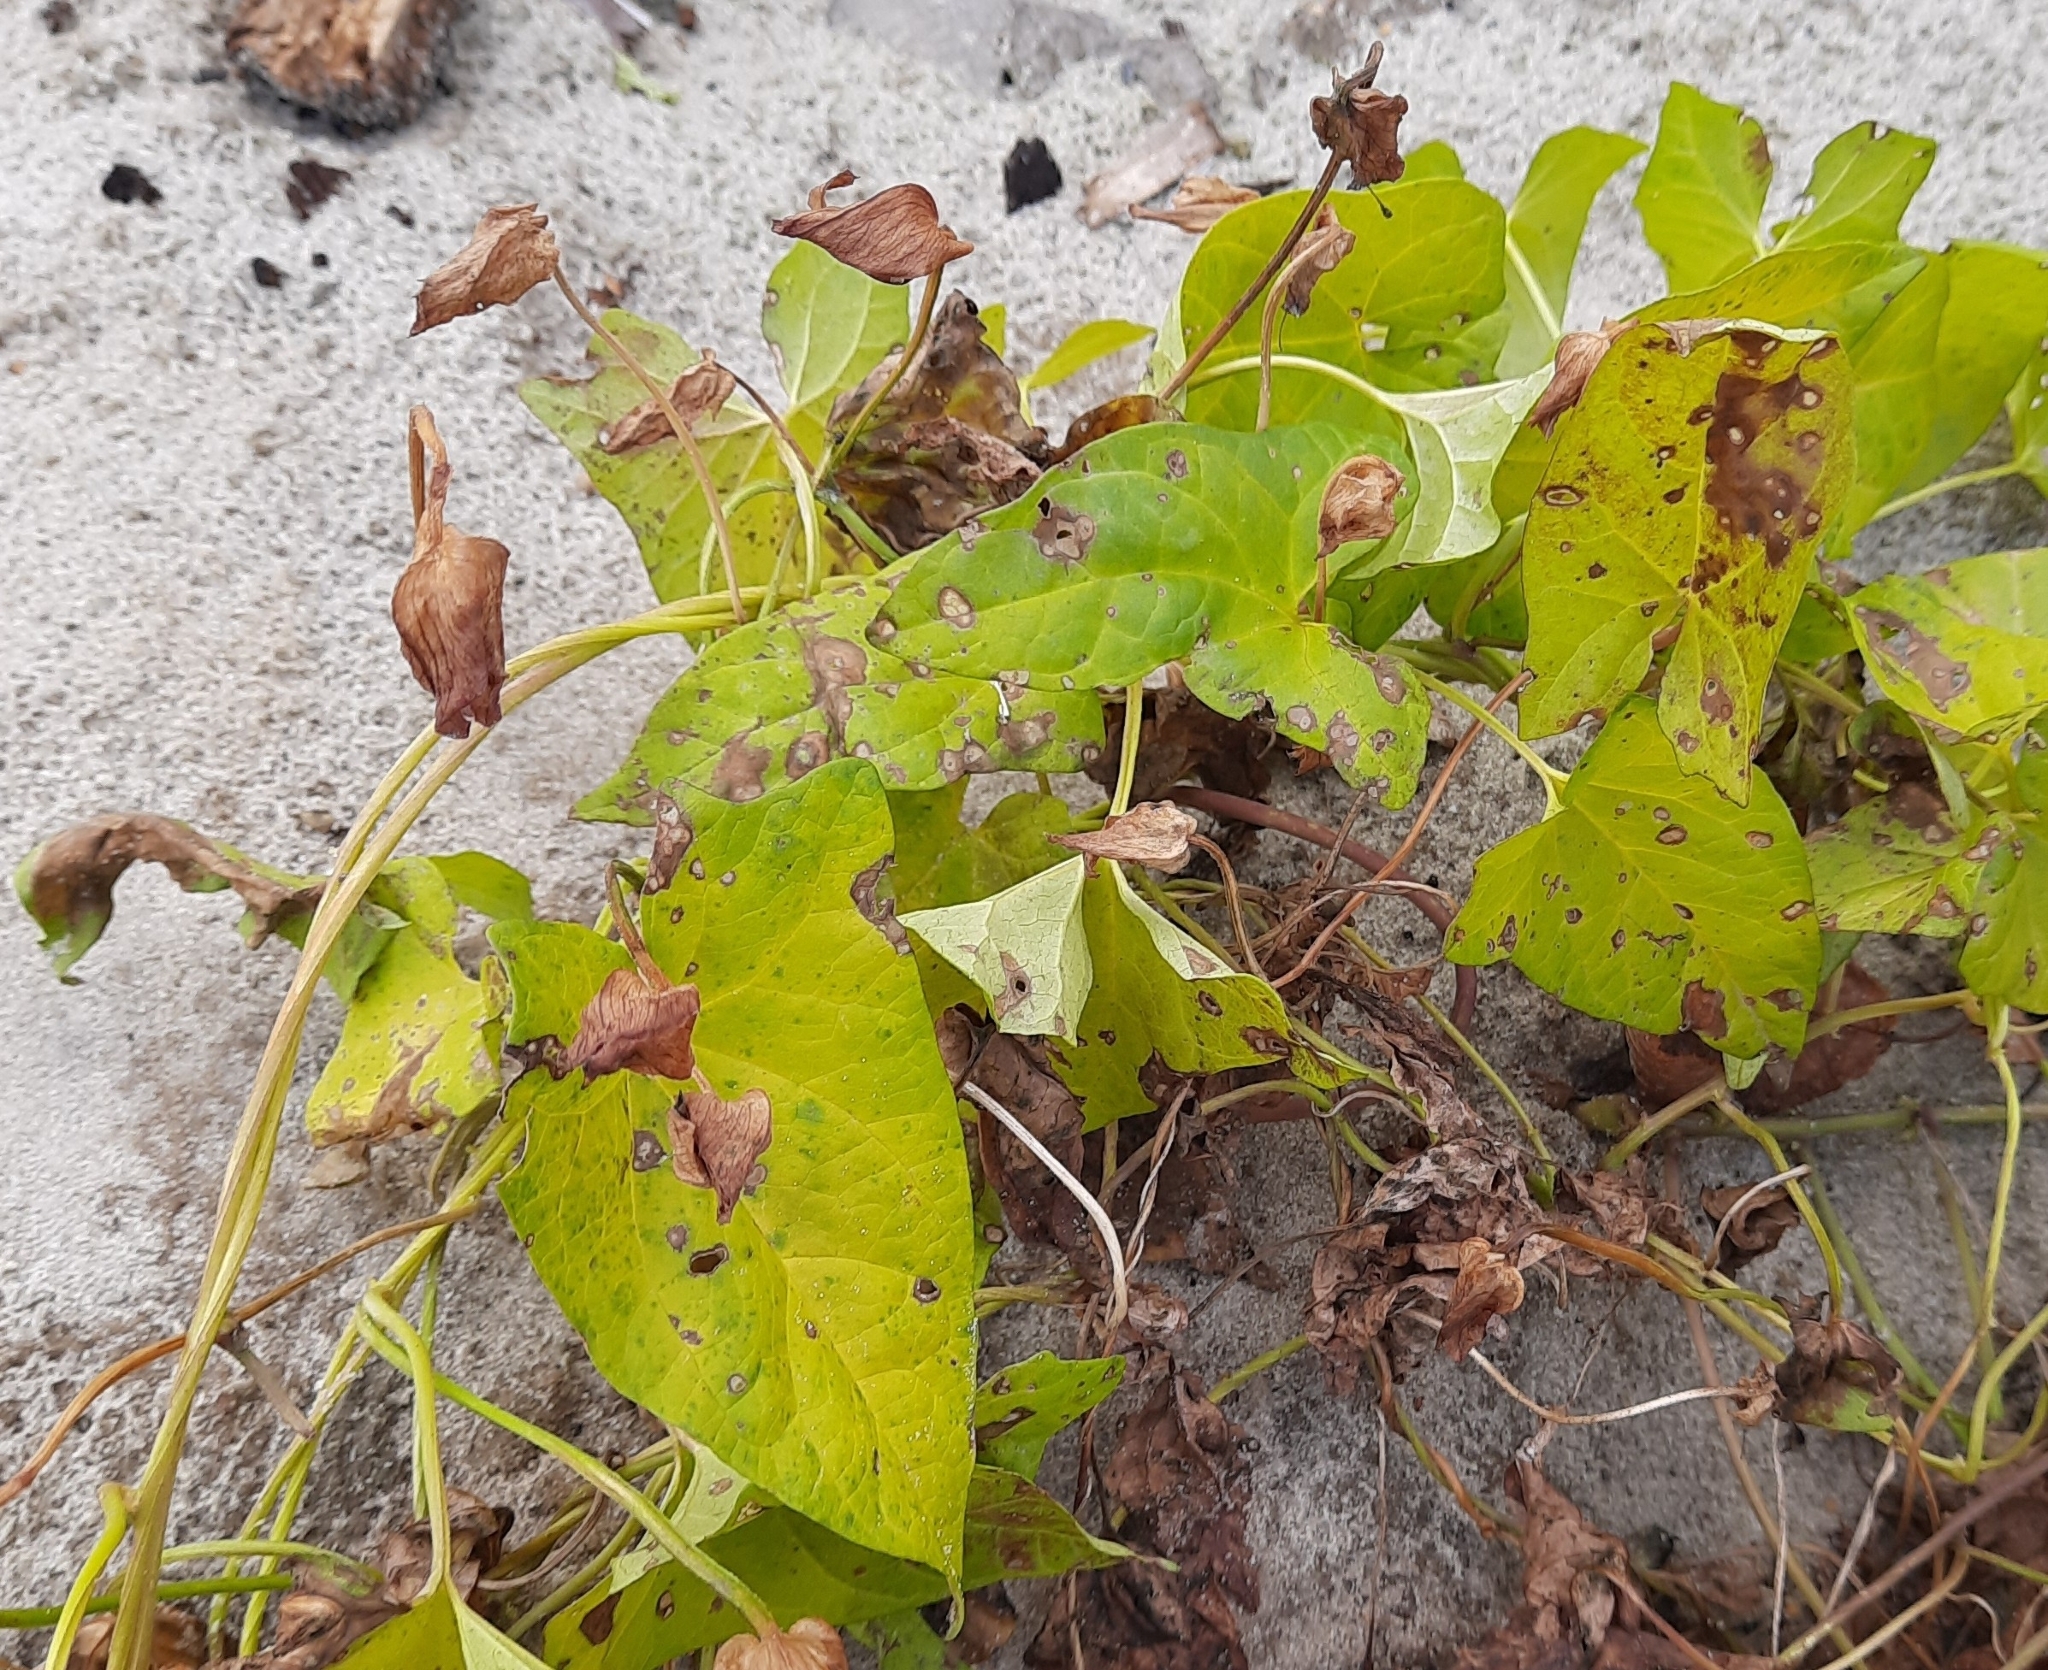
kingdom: Plantae
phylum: Tracheophyta
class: Magnoliopsida
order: Solanales
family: Convolvulaceae
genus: Calystegia
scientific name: Calystegia sepium
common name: Hedge bindweed
